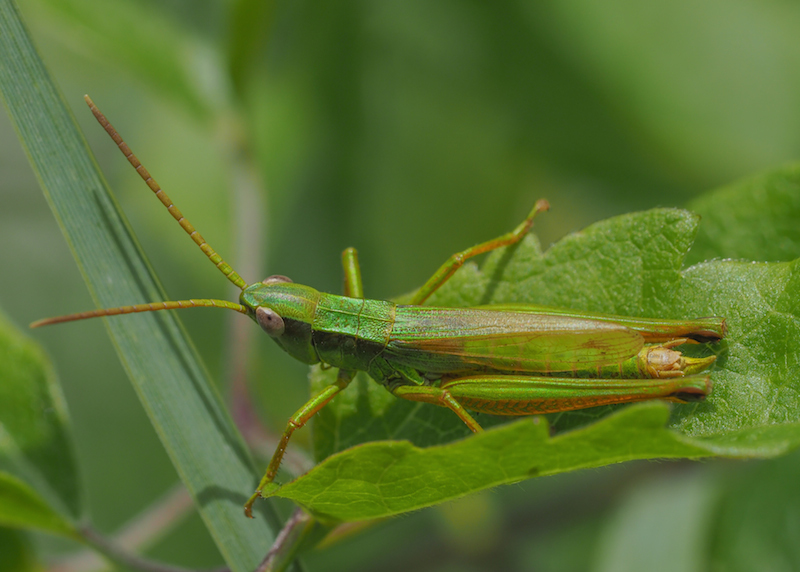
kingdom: Animalia
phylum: Arthropoda
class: Insecta
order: Orthoptera
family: Acrididae
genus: Chrysochraon
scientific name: Chrysochraon dispar
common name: Large gold grasshopper
